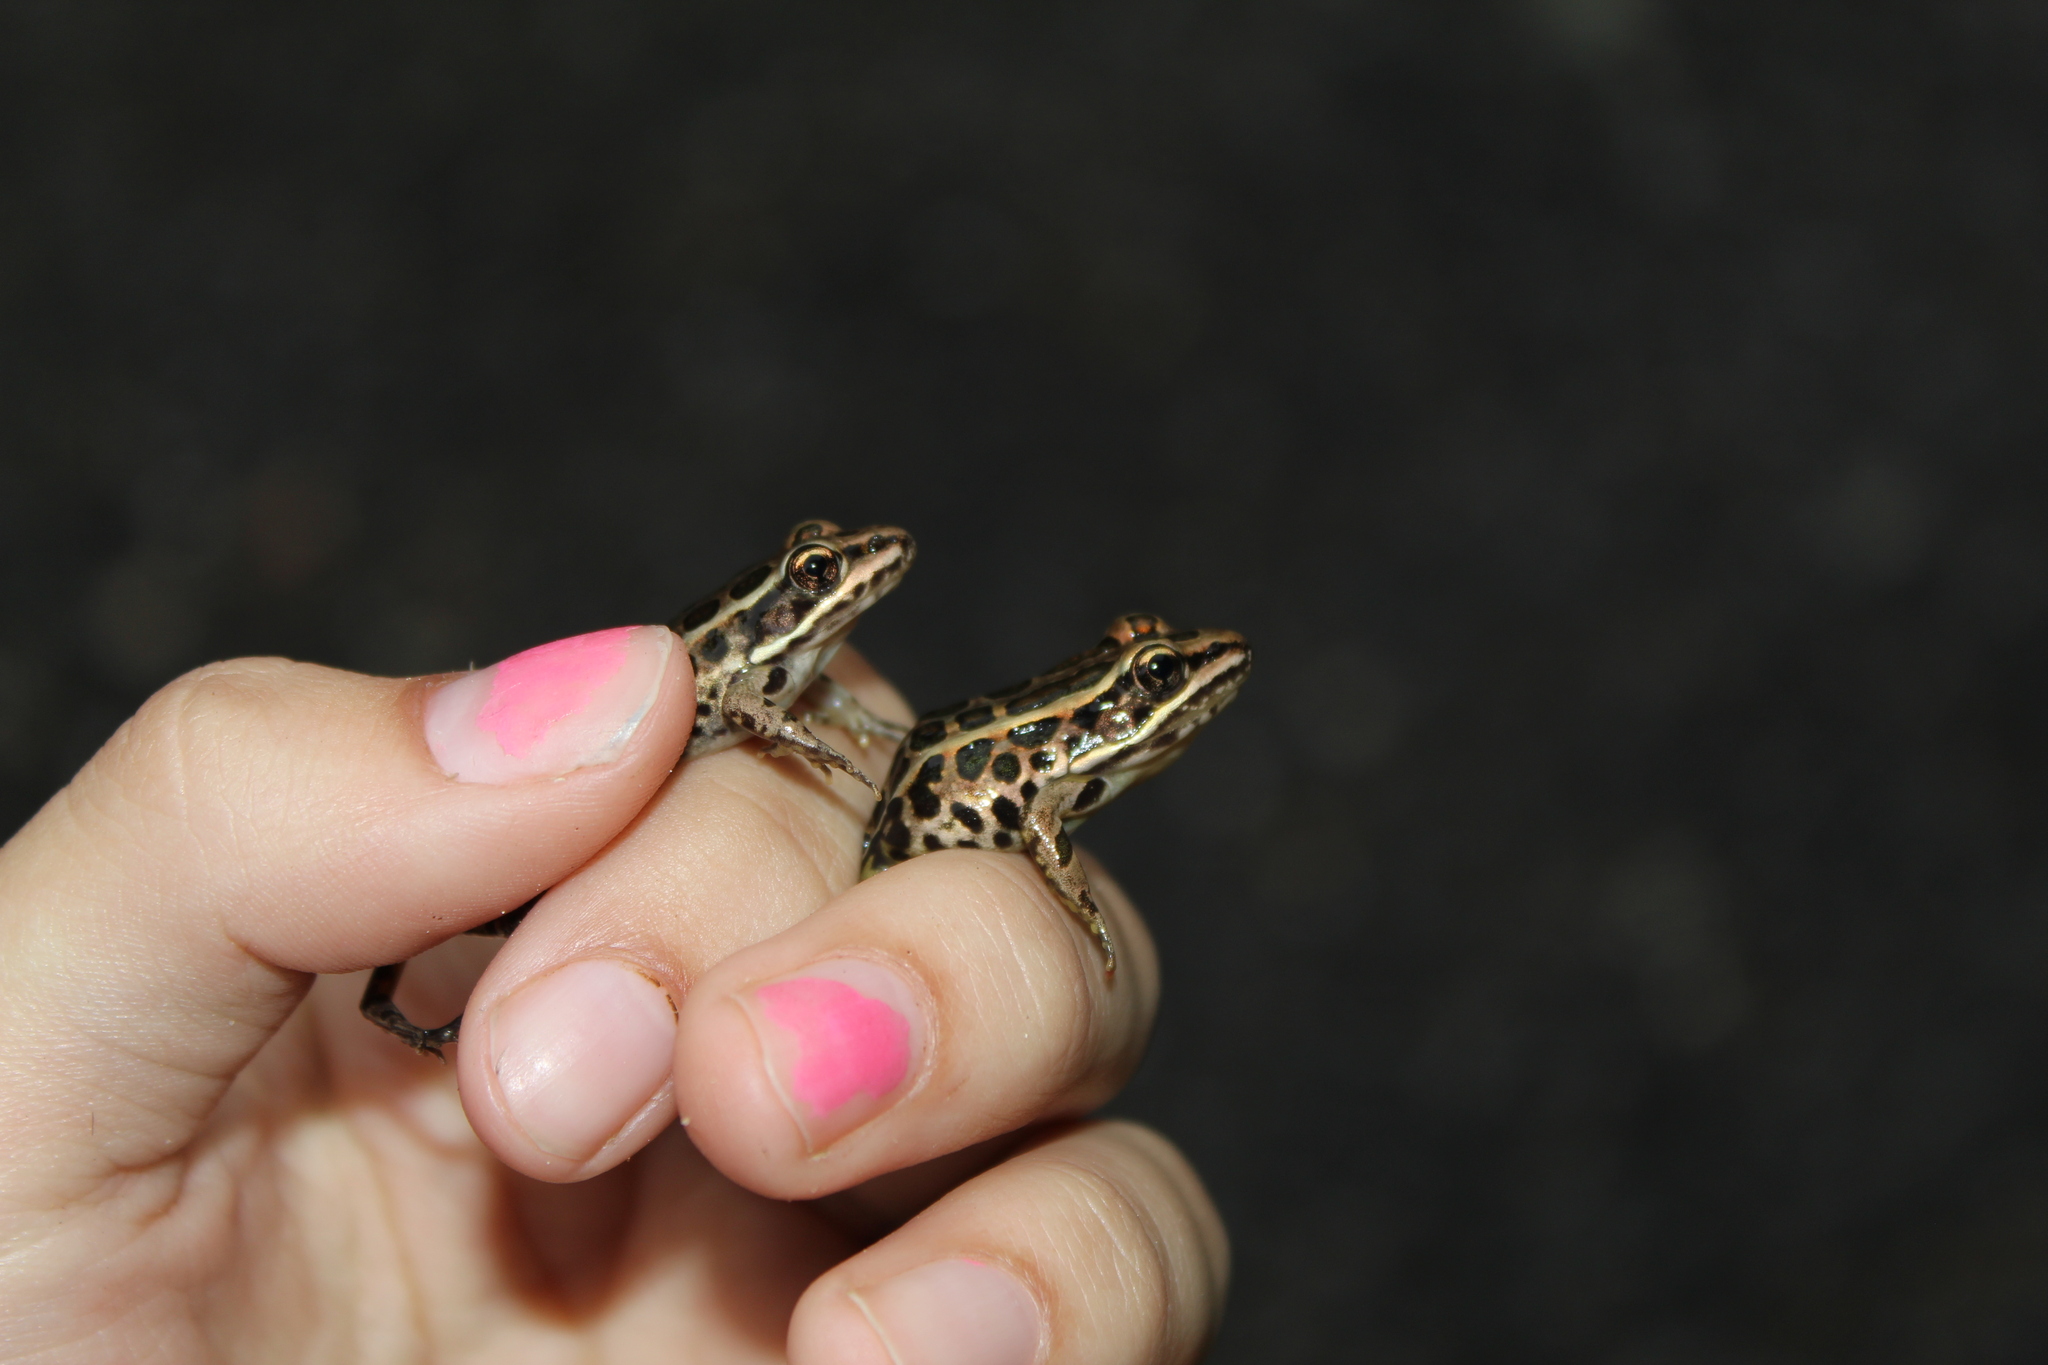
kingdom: Animalia
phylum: Chordata
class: Amphibia
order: Anura
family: Ranidae
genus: Lithobates
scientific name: Lithobates palustris
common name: Pickerel frog
